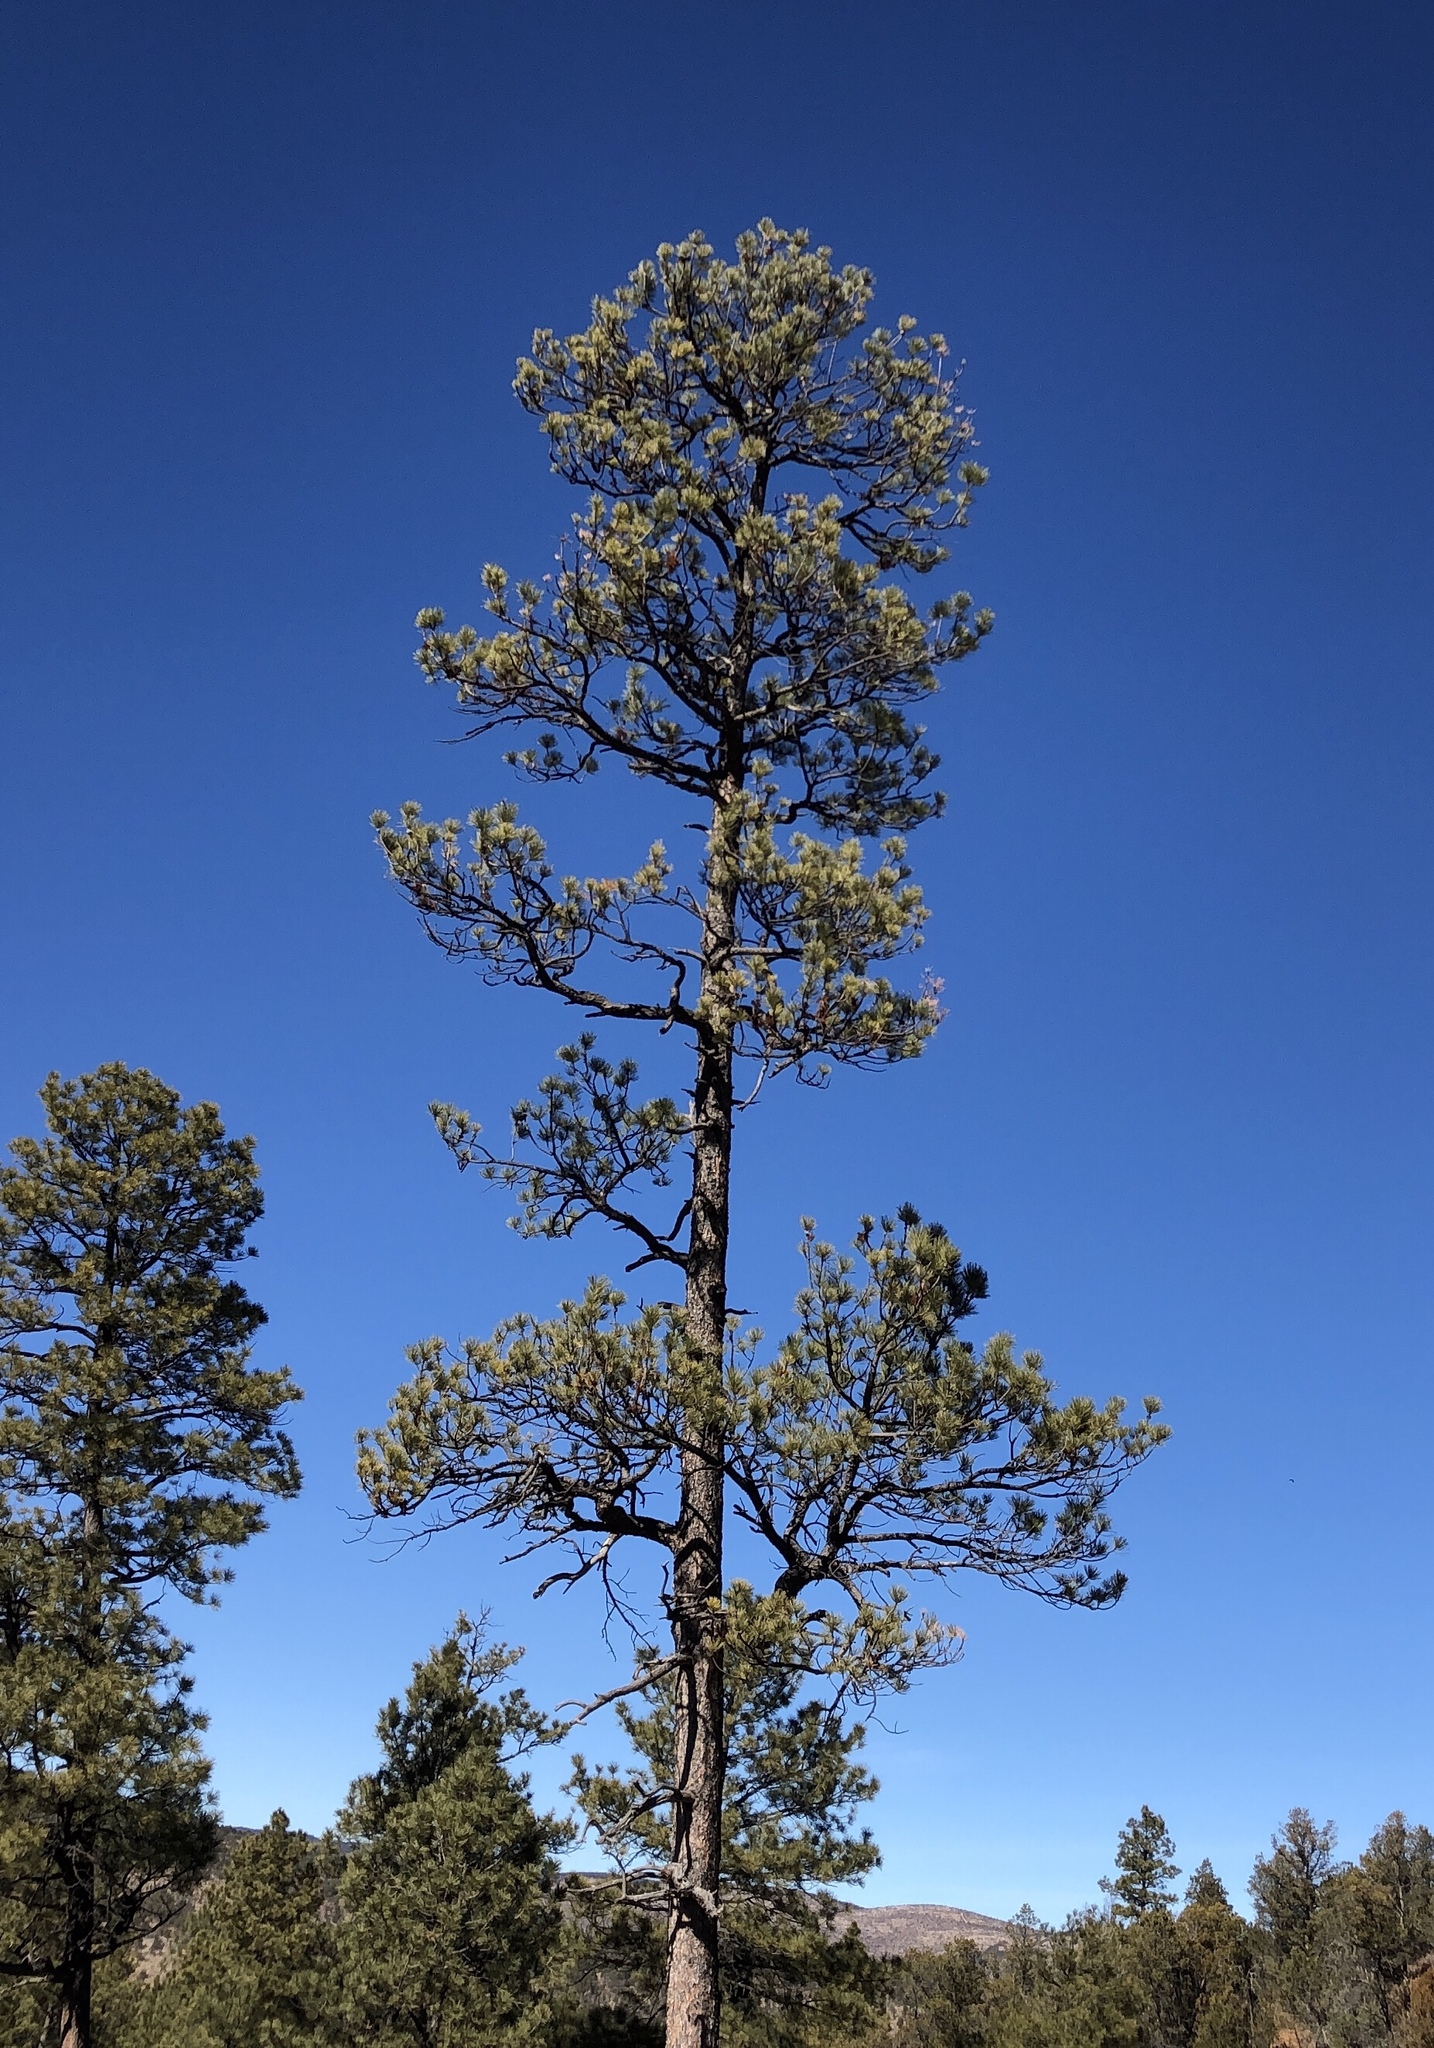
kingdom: Plantae
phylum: Tracheophyta
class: Pinopsida
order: Pinales
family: Pinaceae
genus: Pinus
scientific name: Pinus ponderosa
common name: Western yellow-pine
